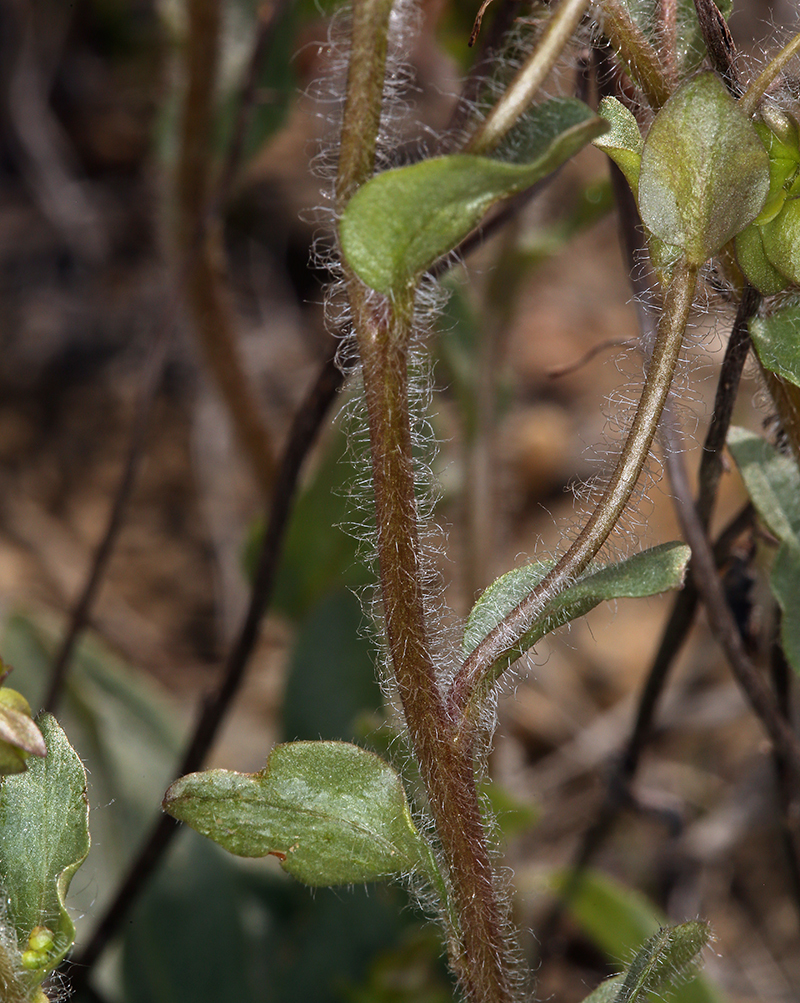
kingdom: Plantae
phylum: Tracheophyta
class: Magnoliopsida
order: Boraginales
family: Hydrophyllaceae
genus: Tricardia
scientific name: Tricardia watsonii
